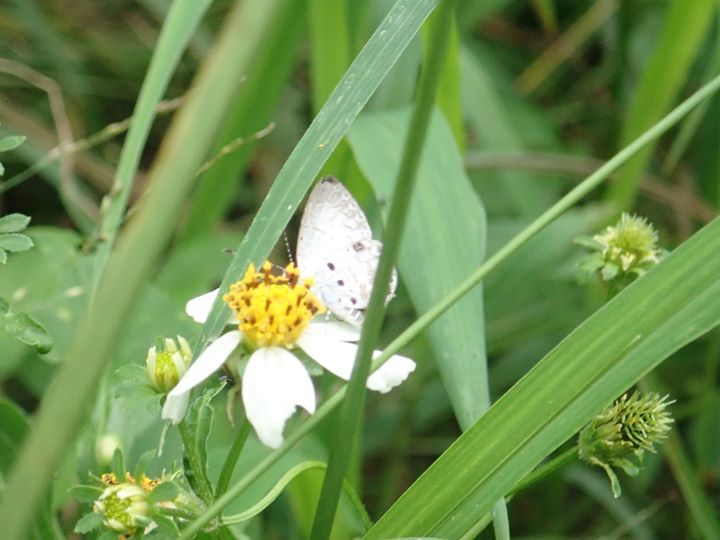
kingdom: Animalia
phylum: Arthropoda
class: Insecta
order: Lepidoptera
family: Lycaenidae
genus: Megisba
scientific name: Megisba malaya
